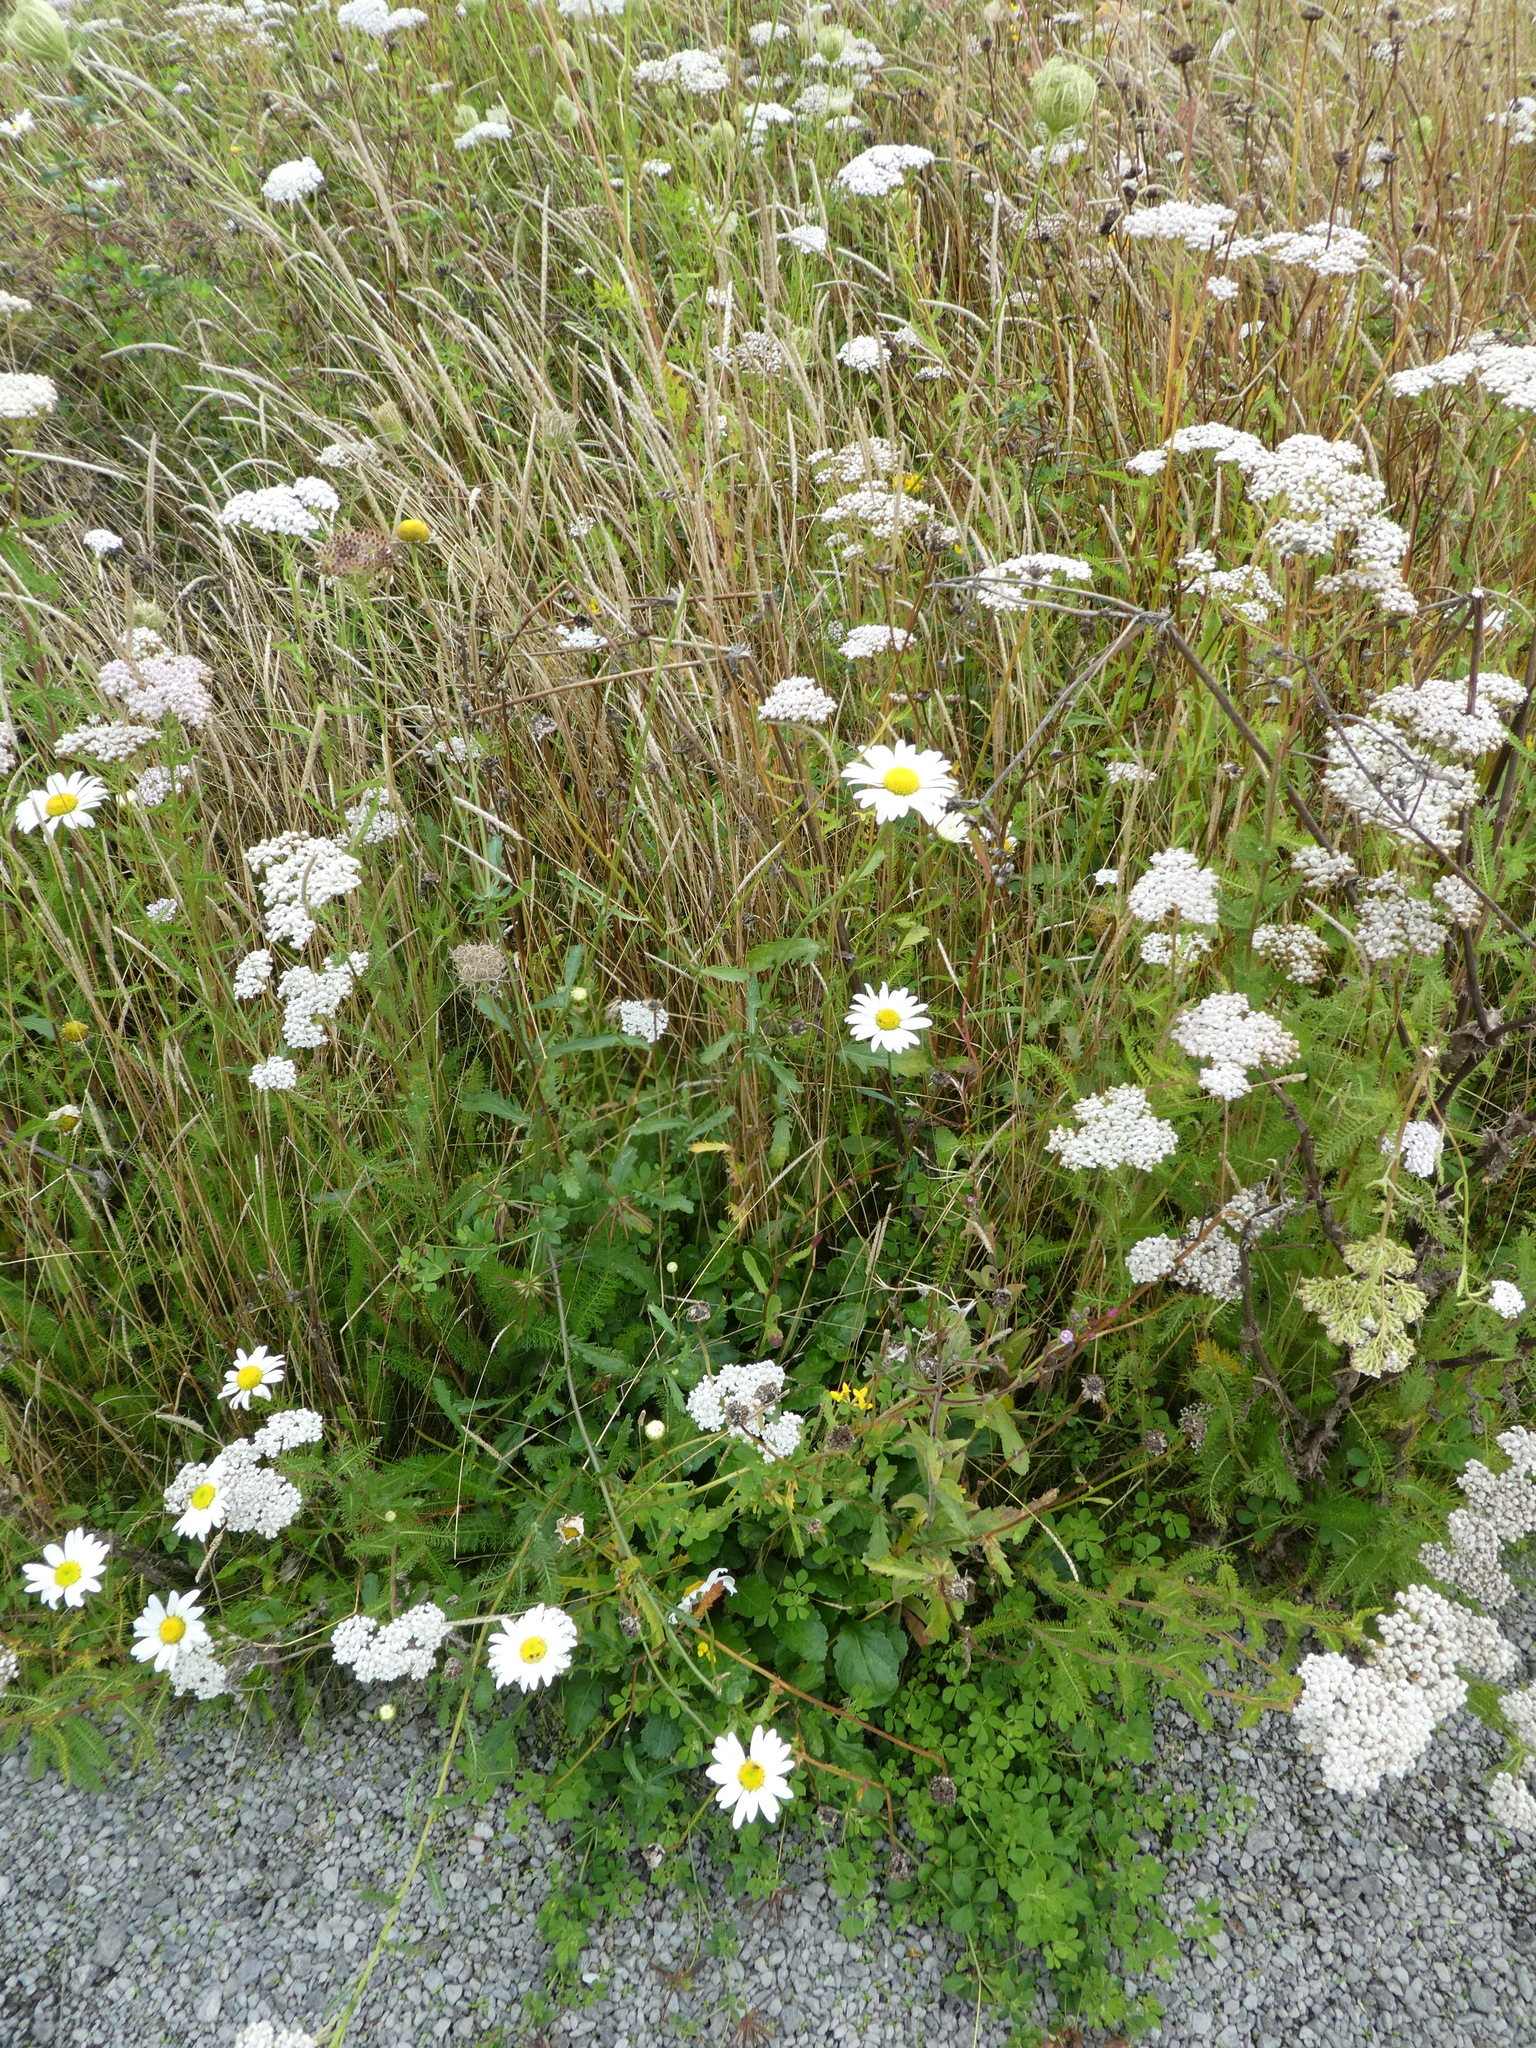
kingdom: Plantae
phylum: Tracheophyta
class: Magnoliopsida
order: Asterales
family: Asteraceae
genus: Leucanthemum
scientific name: Leucanthemum vulgare
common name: Oxeye daisy
